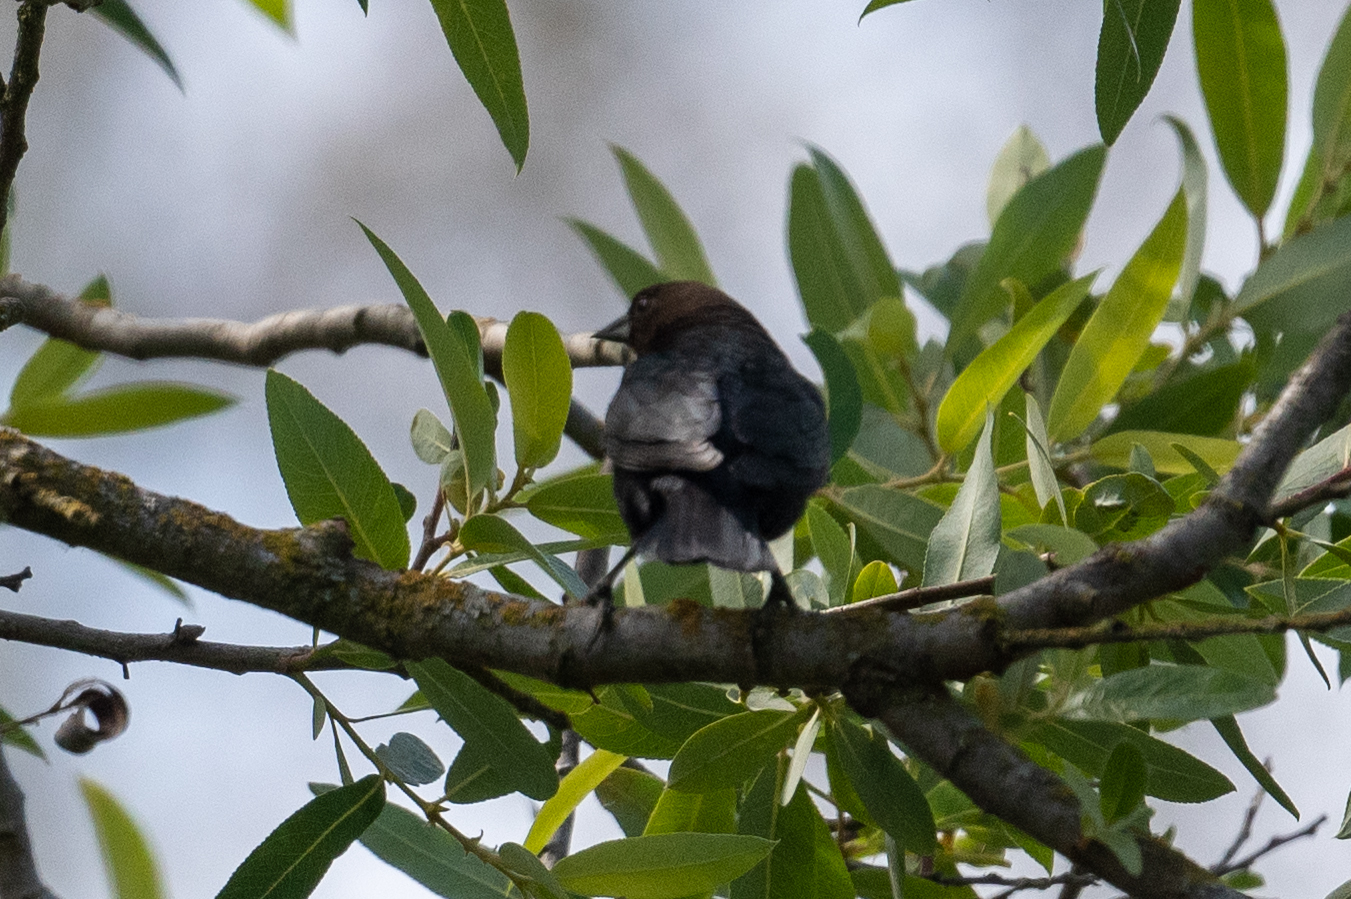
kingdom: Animalia
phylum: Chordata
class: Aves
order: Passeriformes
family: Icteridae
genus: Molothrus
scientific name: Molothrus ater
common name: Brown-headed cowbird
